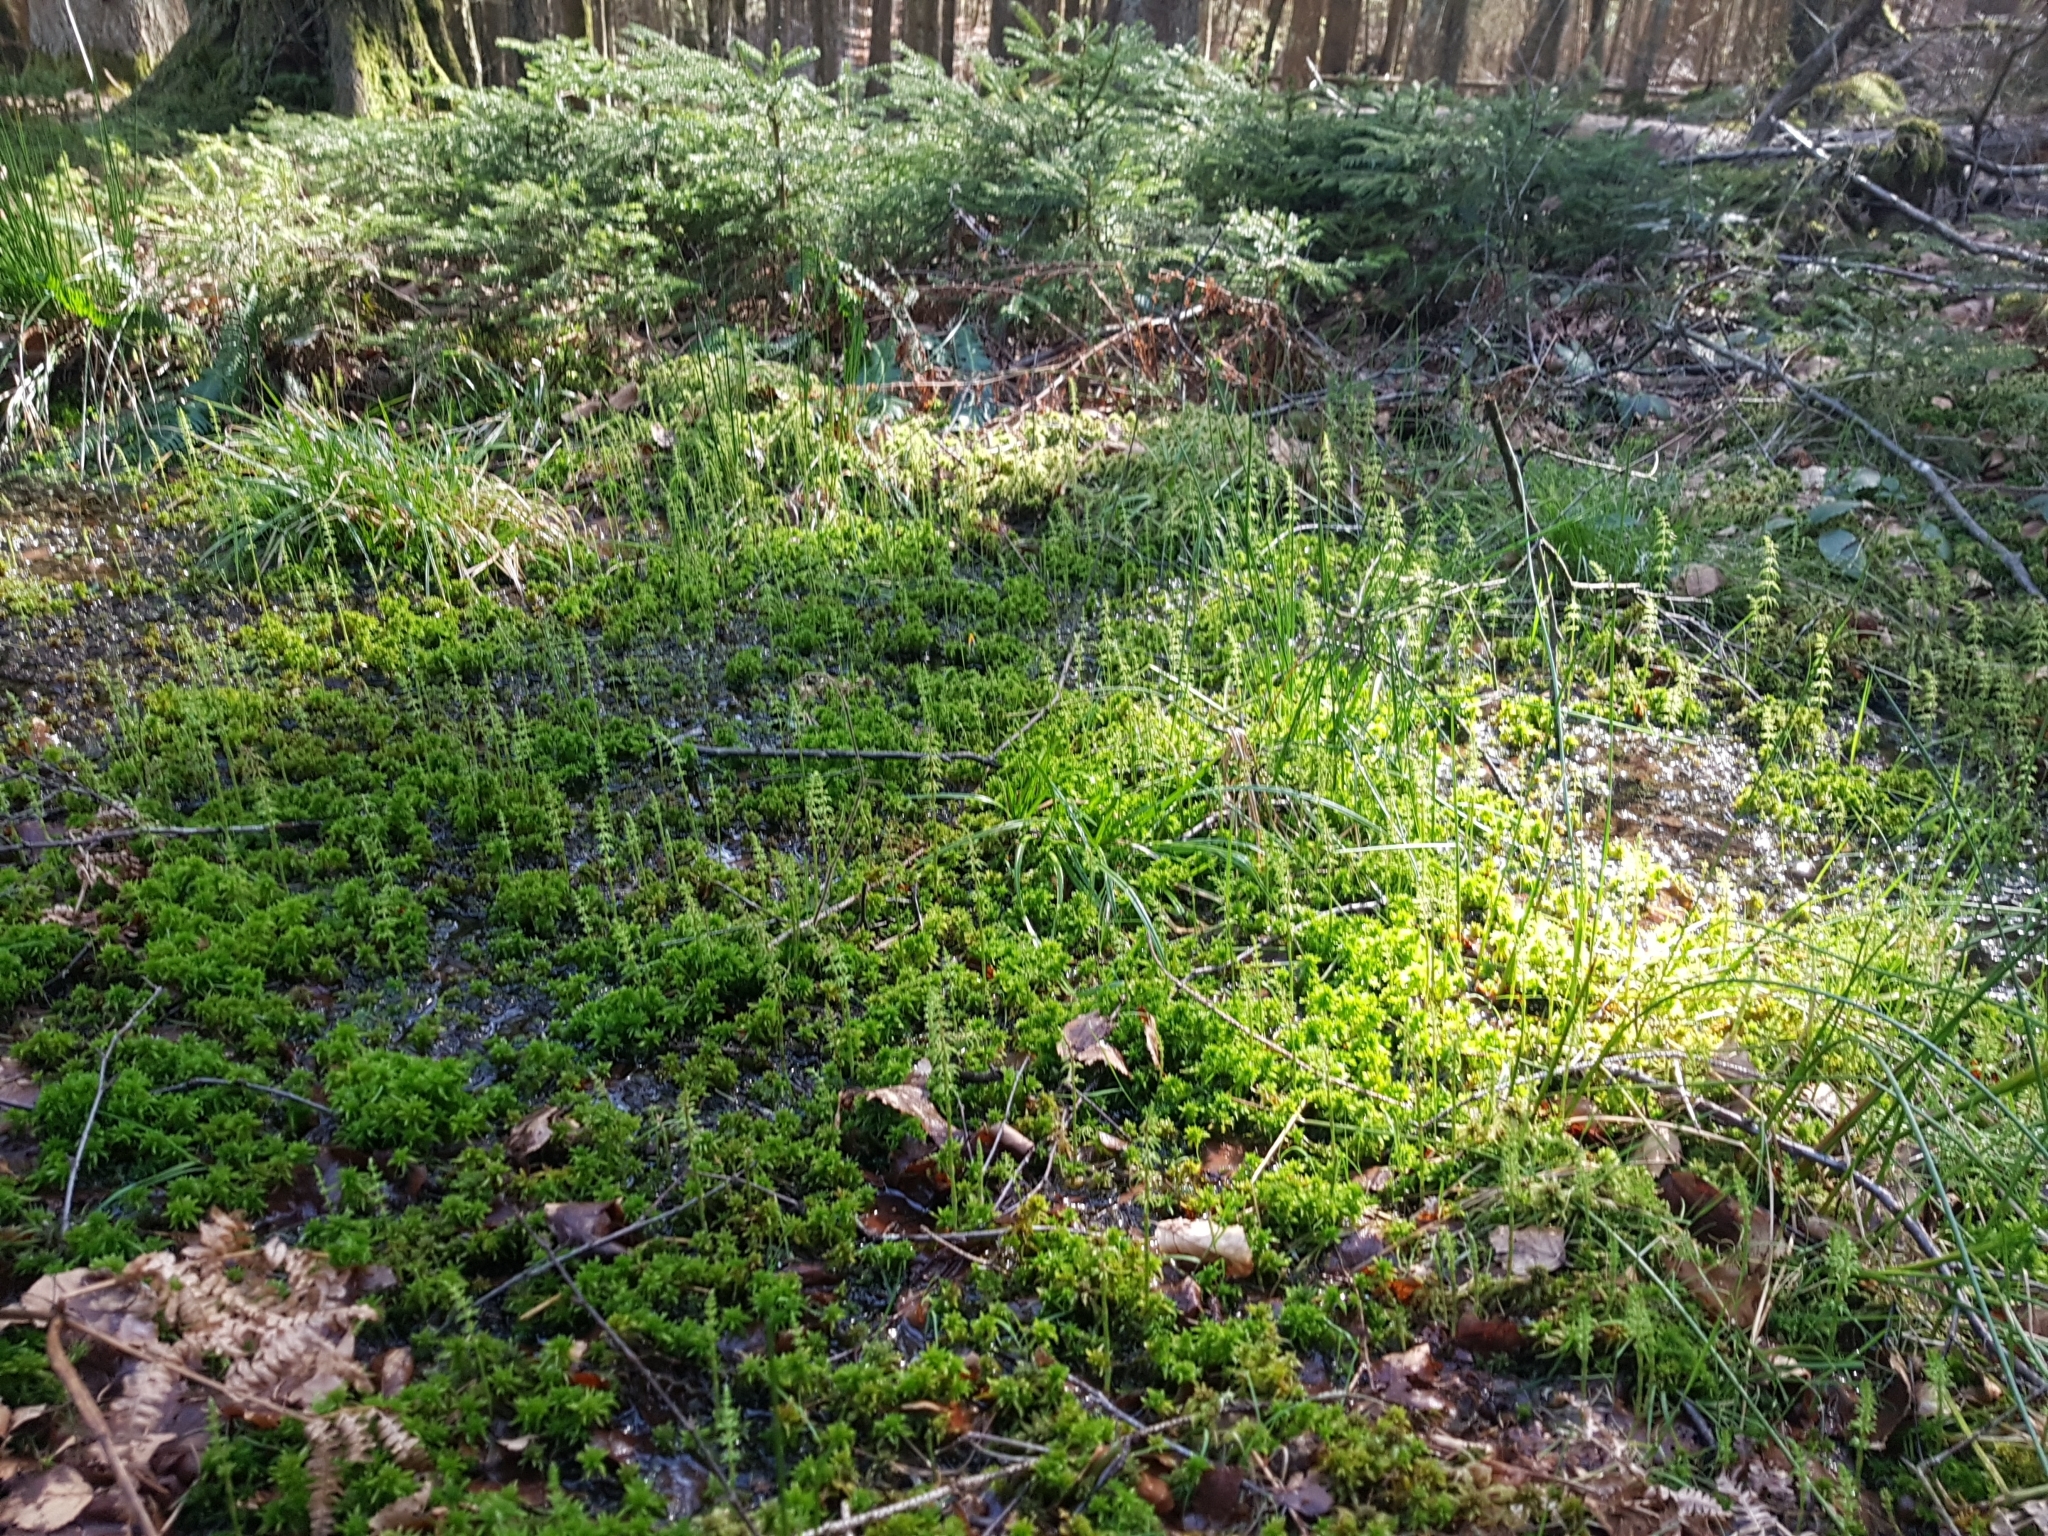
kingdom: Plantae
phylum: Tracheophyta
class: Polypodiopsida
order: Equisetales
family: Equisetaceae
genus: Equisetum
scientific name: Equisetum sylvaticum
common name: Wood horsetail
